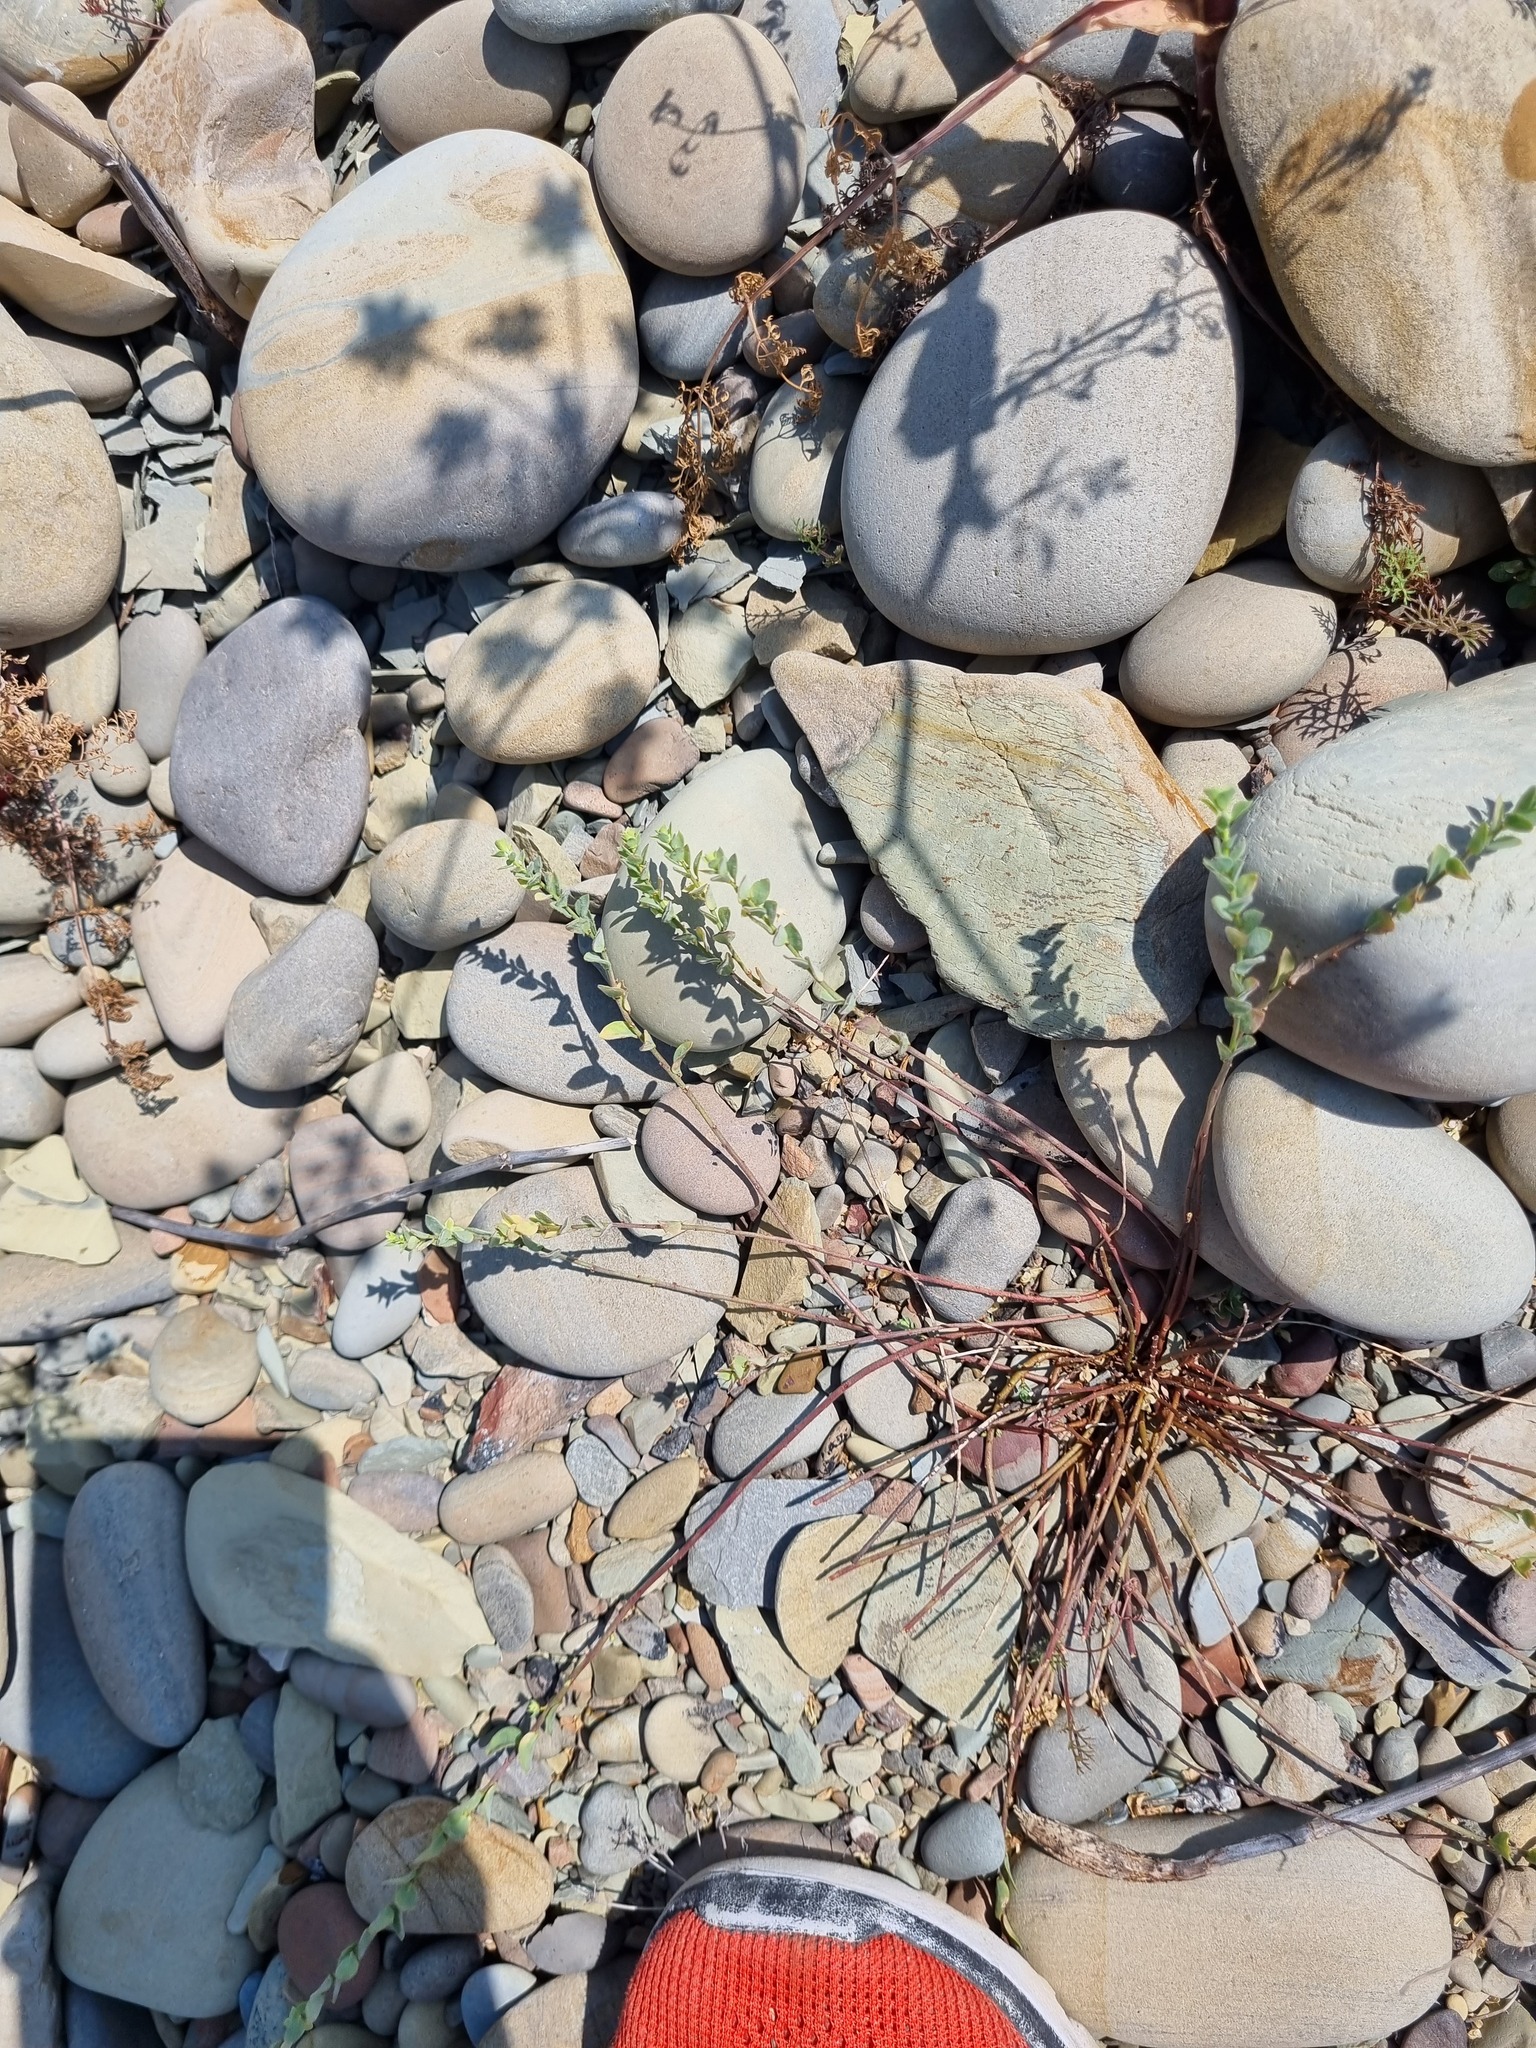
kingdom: Plantae
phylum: Tracheophyta
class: Magnoliopsida
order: Malpighiales
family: Phyllanthaceae
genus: Andrachne
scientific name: Andrachne telephioides
